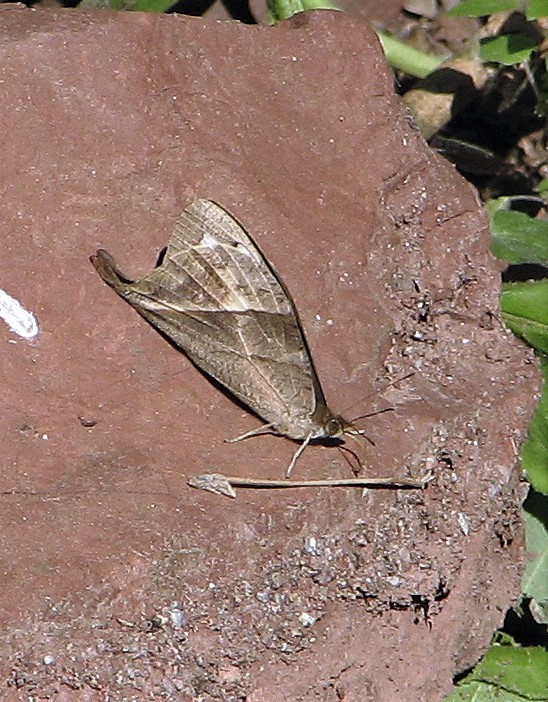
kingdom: Animalia
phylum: Arthropoda
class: Insecta
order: Lepidoptera
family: Nymphalidae
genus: Corades
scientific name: Corades iduna
